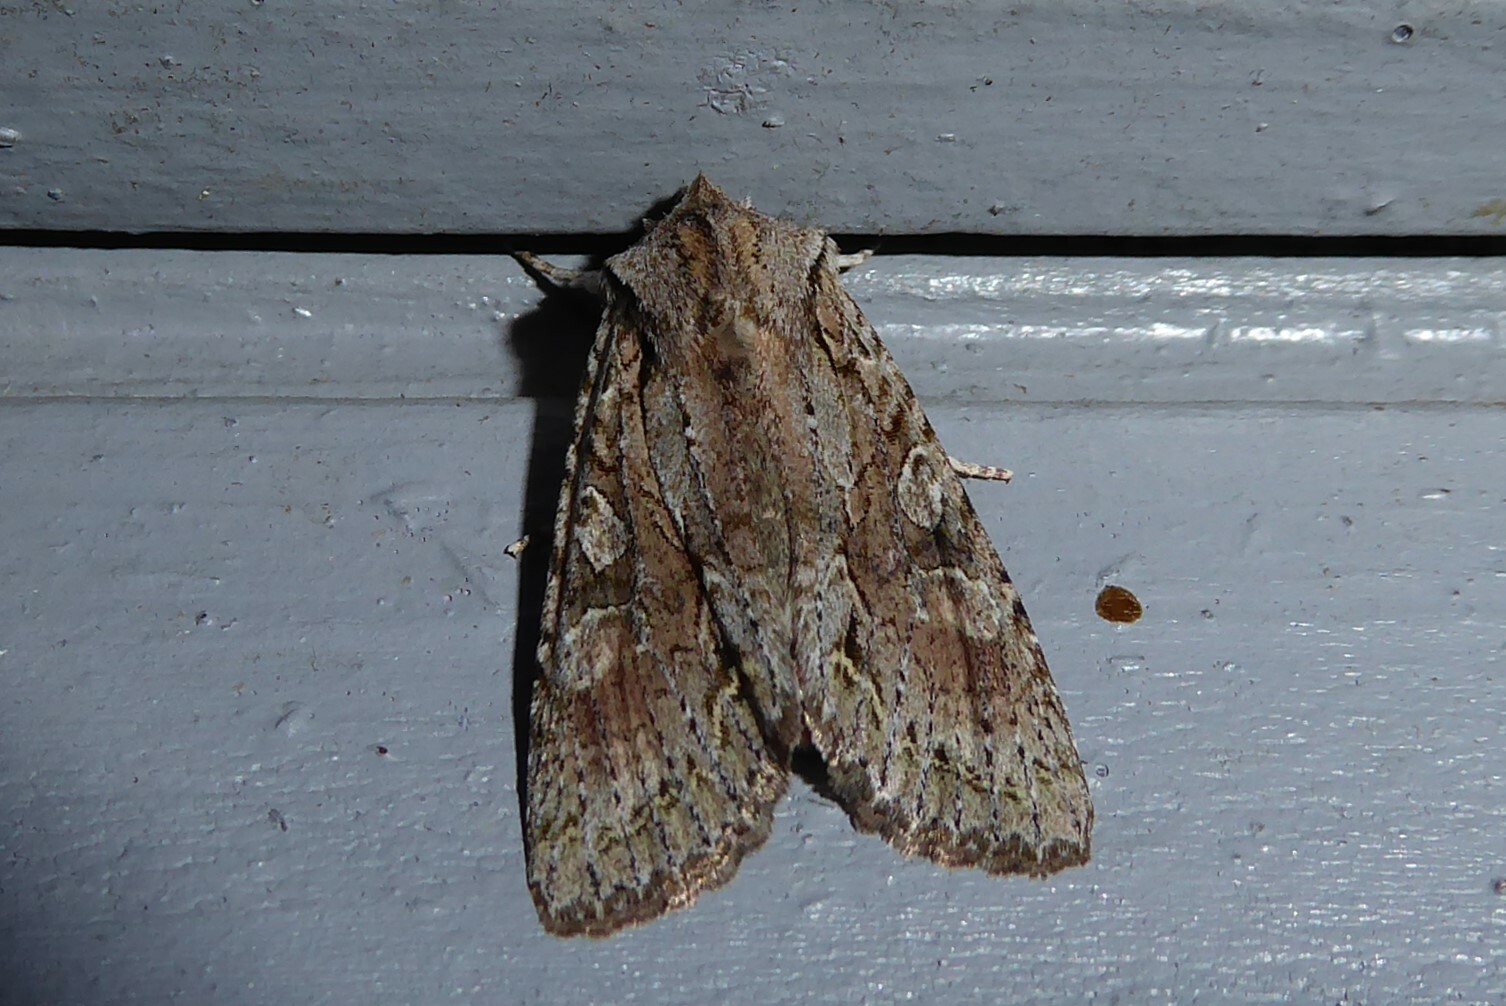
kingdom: Animalia
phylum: Arthropoda
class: Insecta
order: Lepidoptera
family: Noctuidae
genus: Ichneutica
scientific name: Ichneutica mutans
